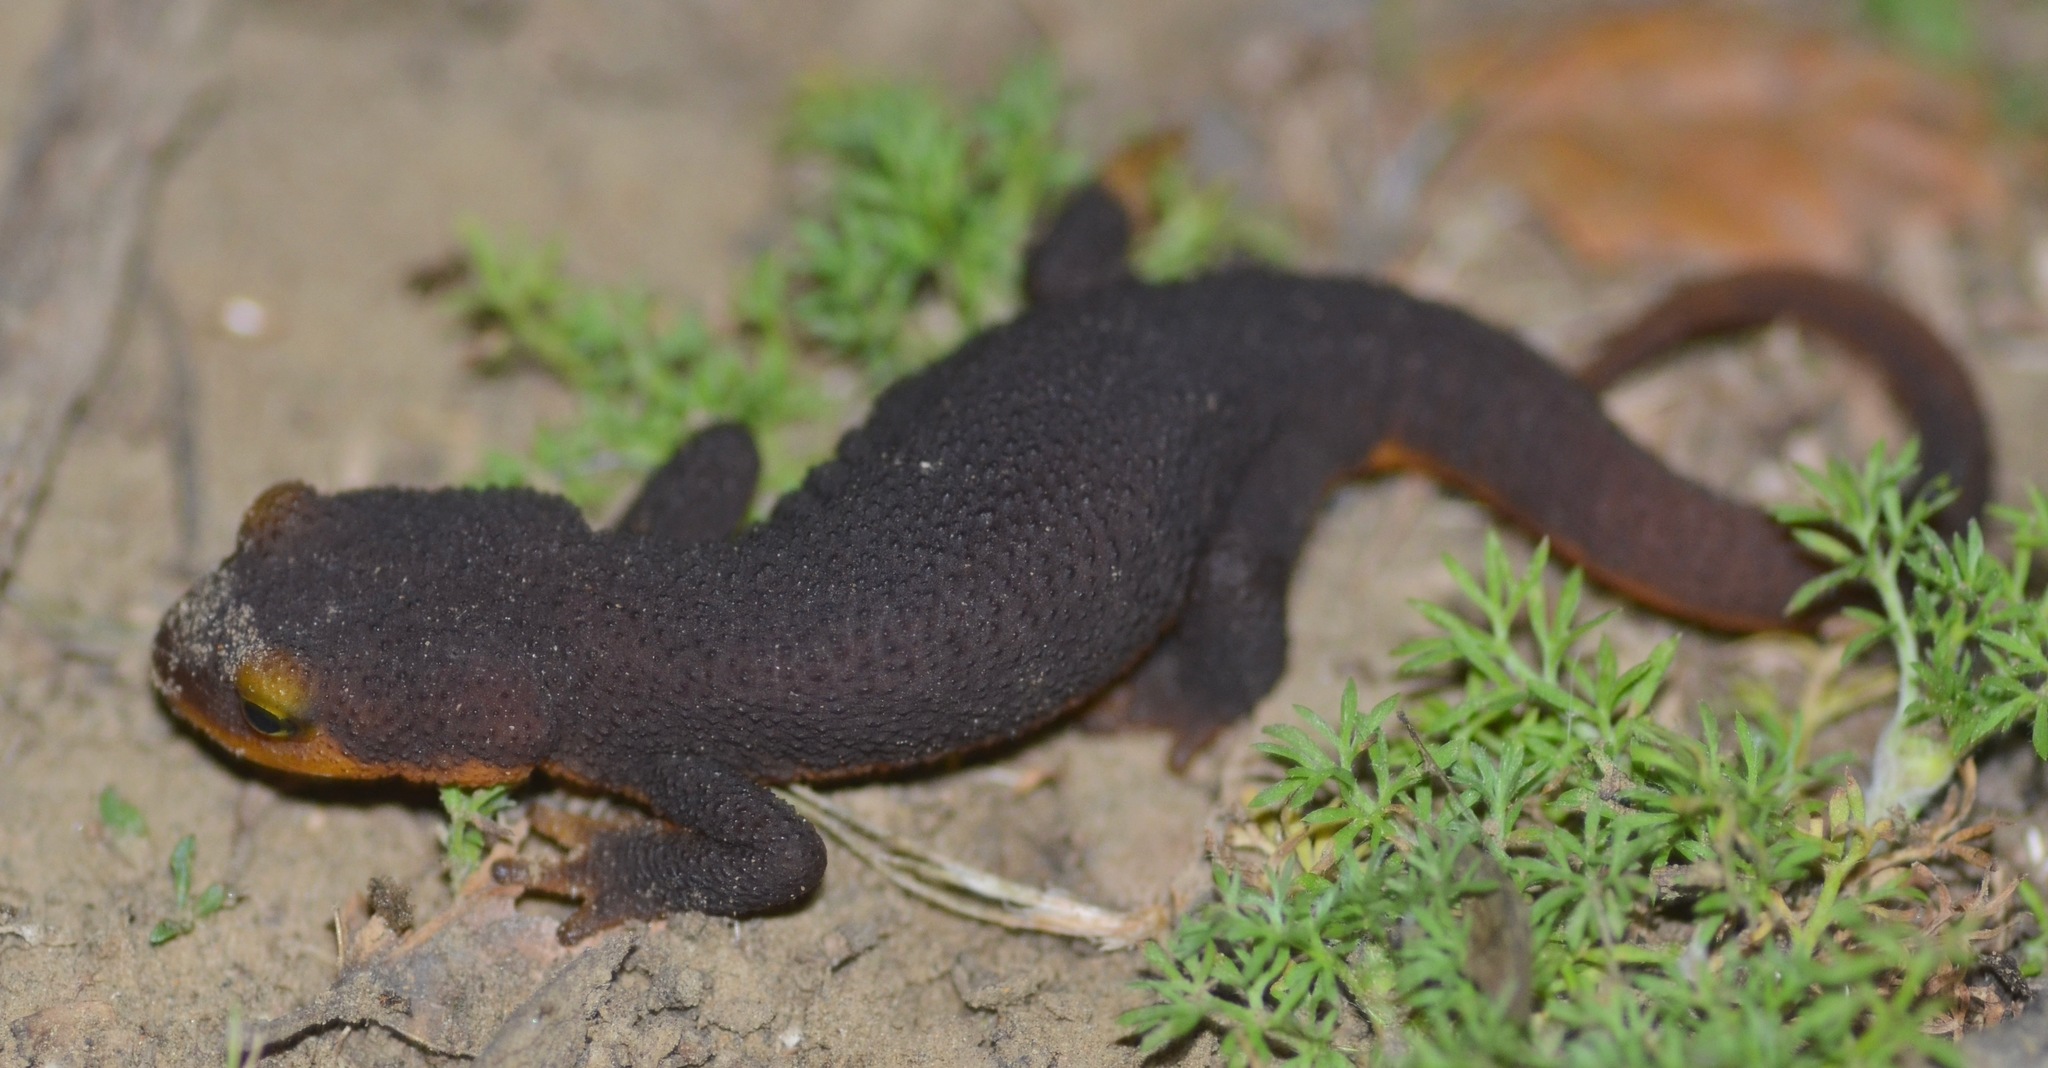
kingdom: Animalia
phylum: Chordata
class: Amphibia
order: Caudata
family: Salamandridae
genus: Taricha
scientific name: Taricha torosa
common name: California newt
